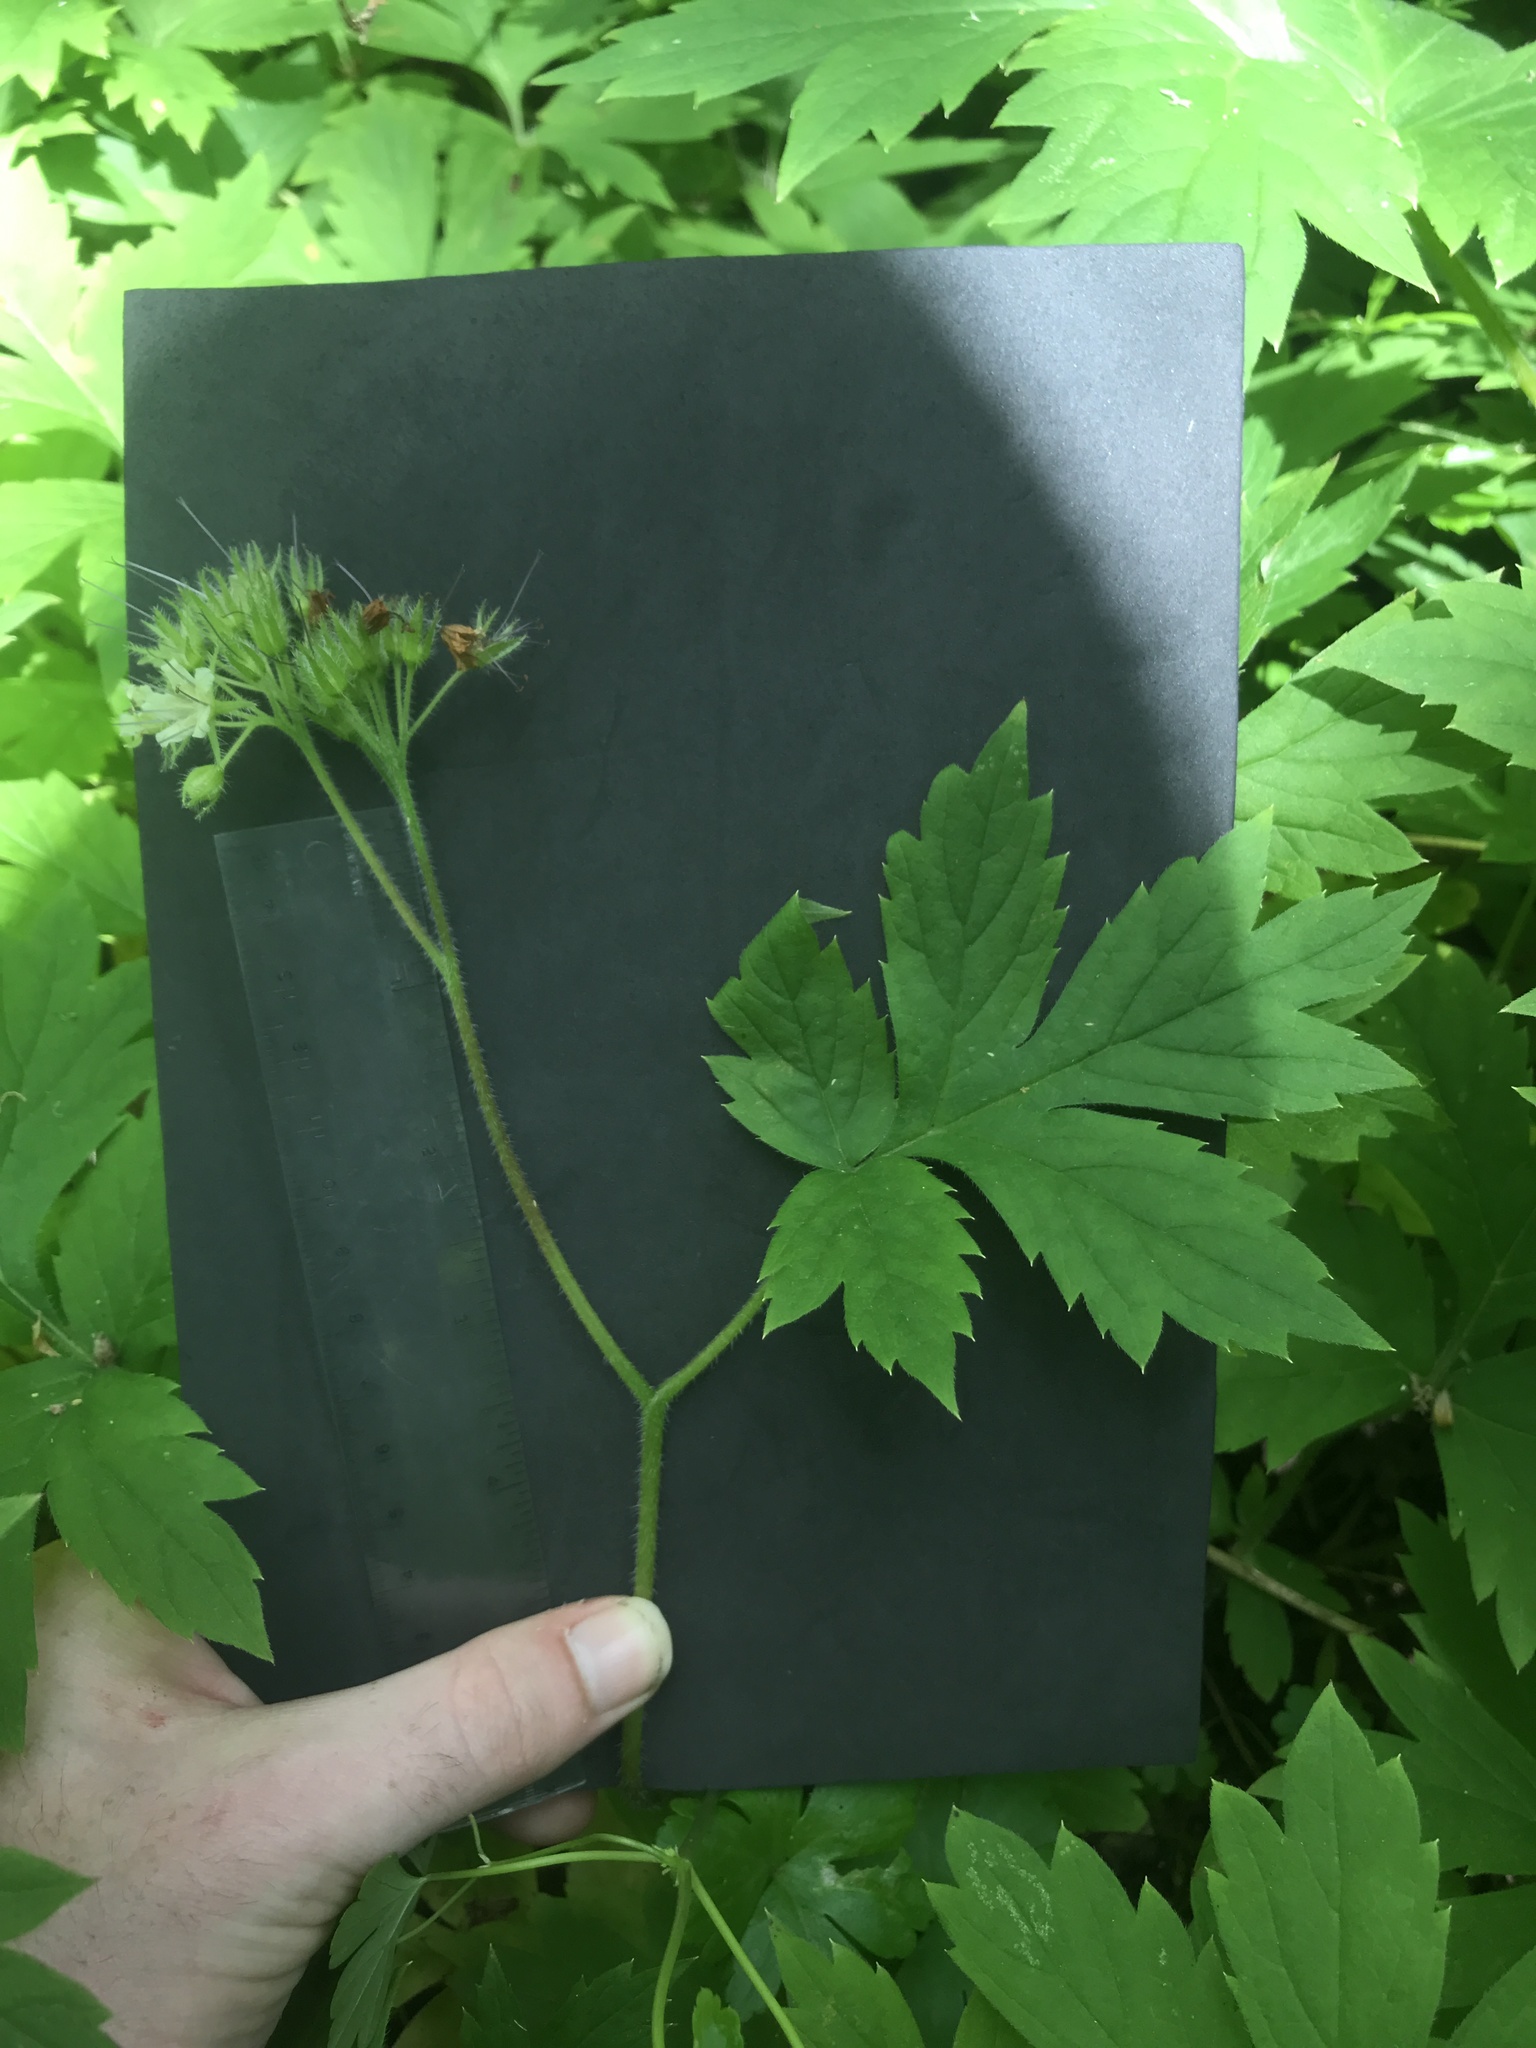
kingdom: Plantae
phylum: Tracheophyta
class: Magnoliopsida
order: Boraginales
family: Hydrophyllaceae
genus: Hydrophyllum
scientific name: Hydrophyllum tenuipes
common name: Pacific waterleaf
